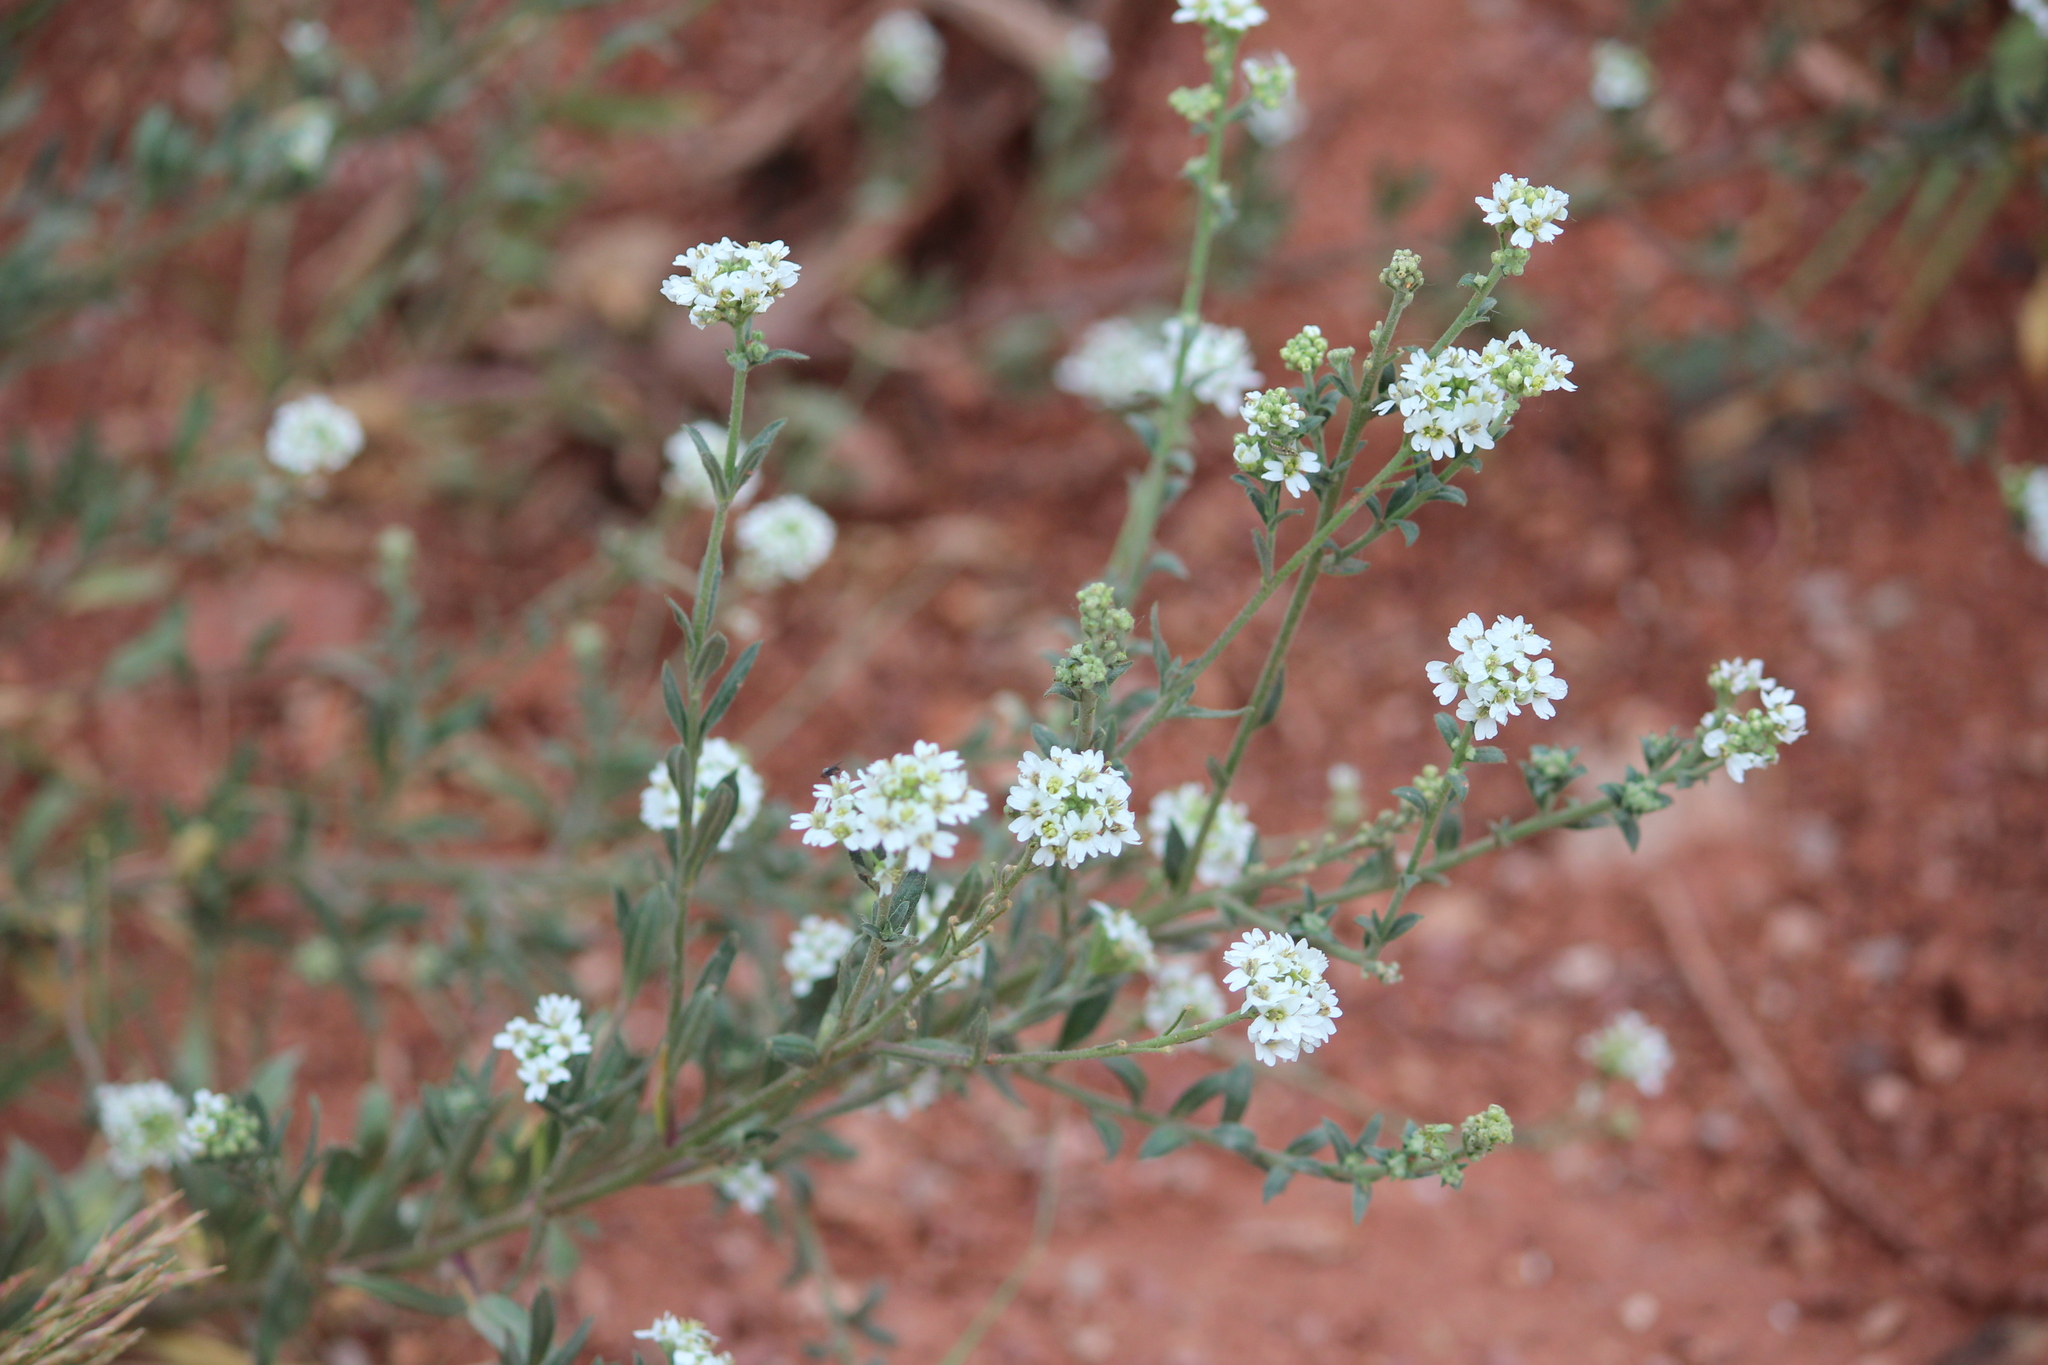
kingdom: Plantae
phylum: Tracheophyta
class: Magnoliopsida
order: Brassicales
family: Brassicaceae
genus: Berteroa
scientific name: Berteroa incana
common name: Hoary alison
